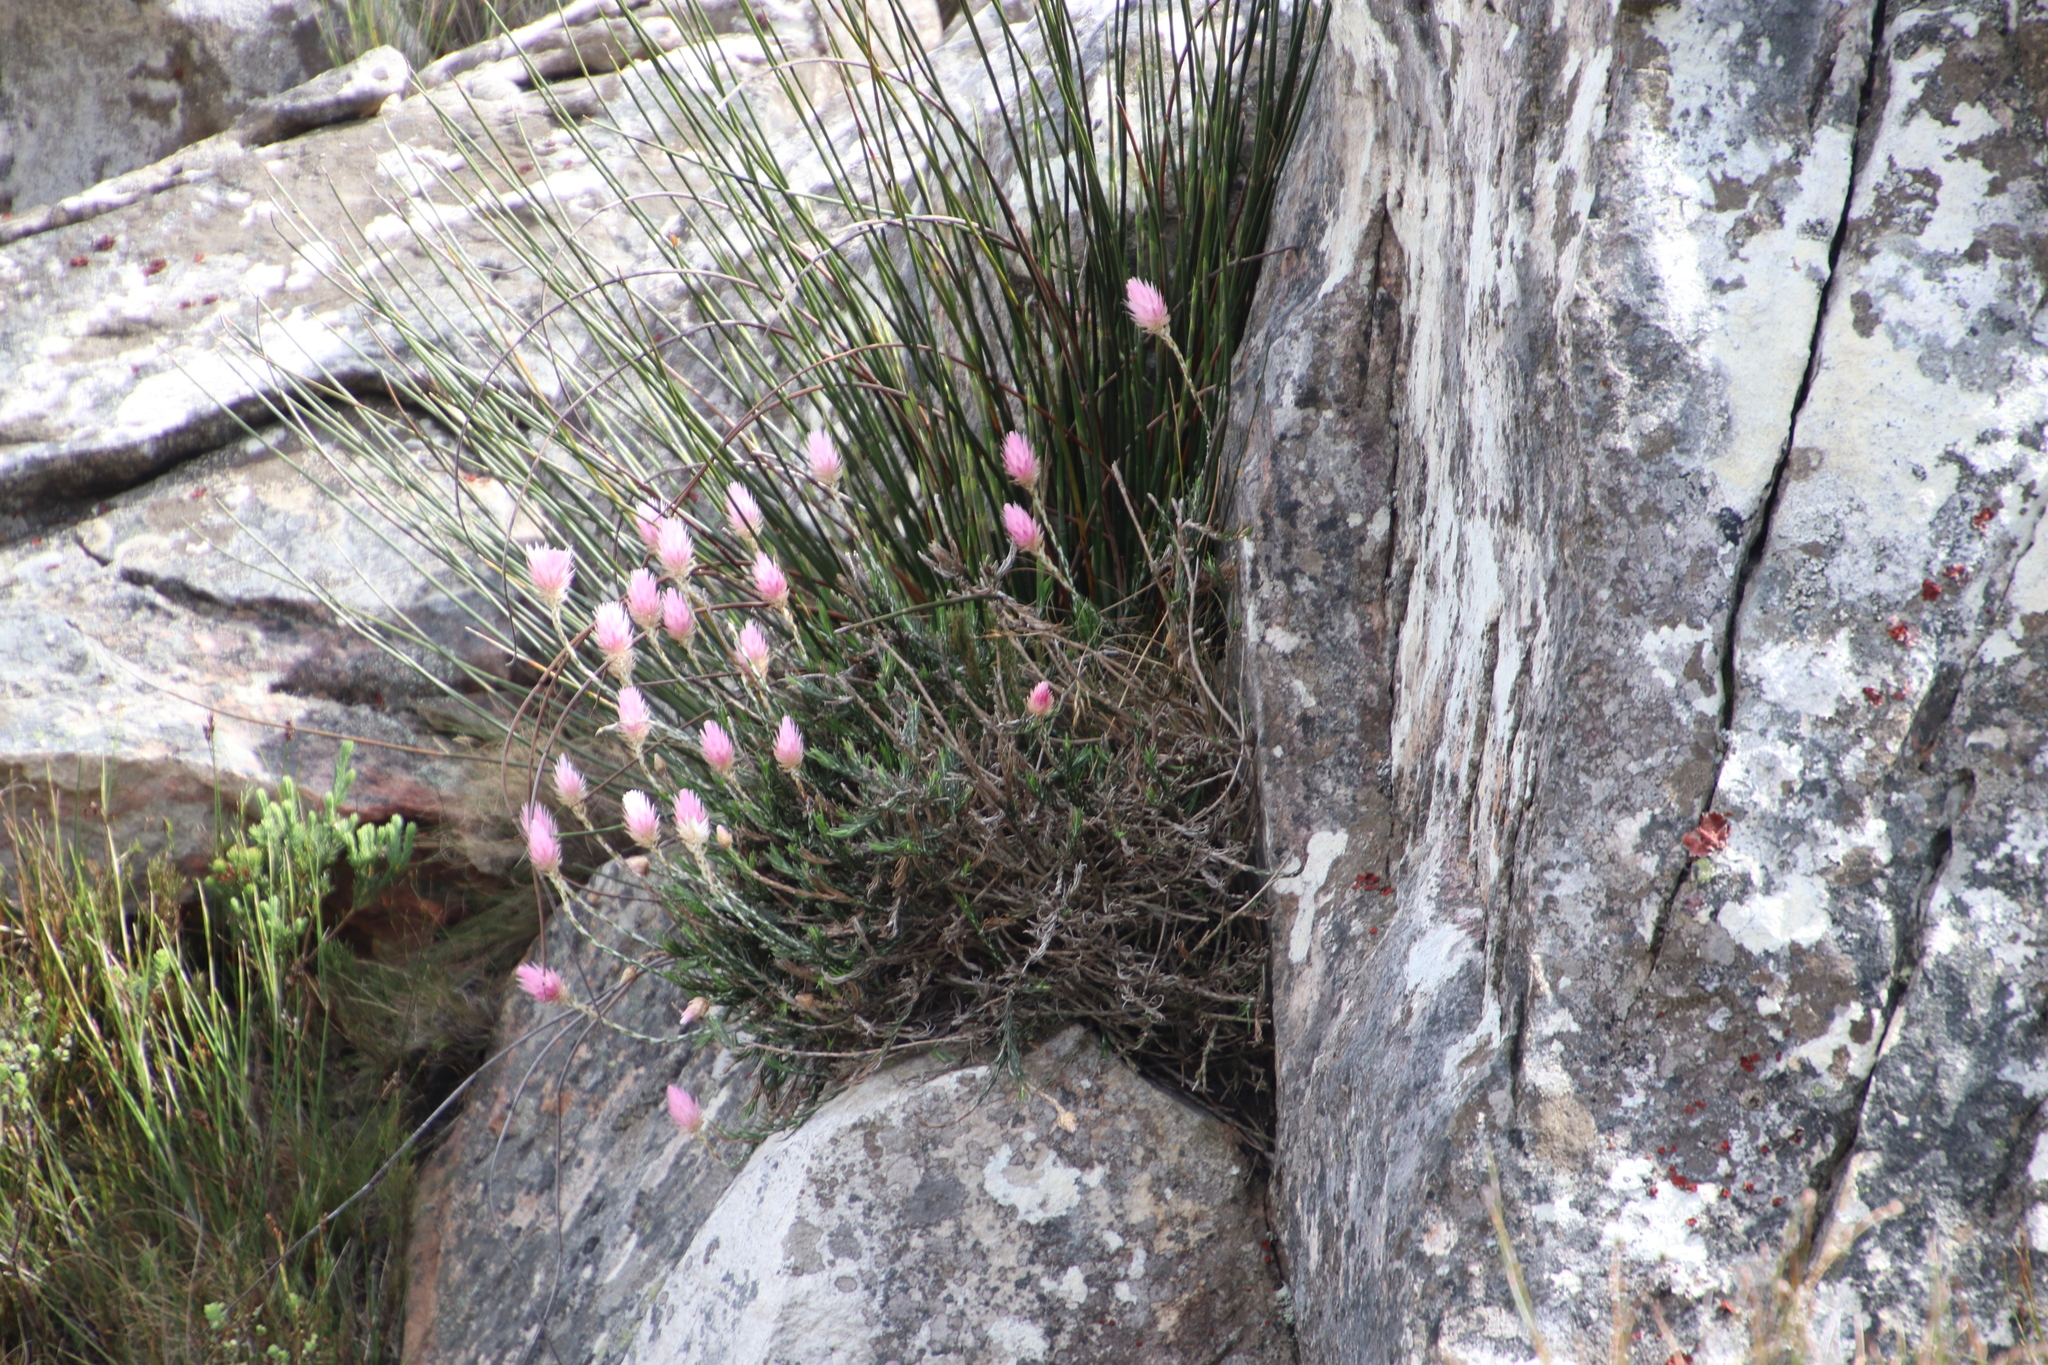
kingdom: Plantae
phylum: Tracheophyta
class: Magnoliopsida
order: Asterales
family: Asteraceae
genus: Edmondia
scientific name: Edmondia pinifolia
